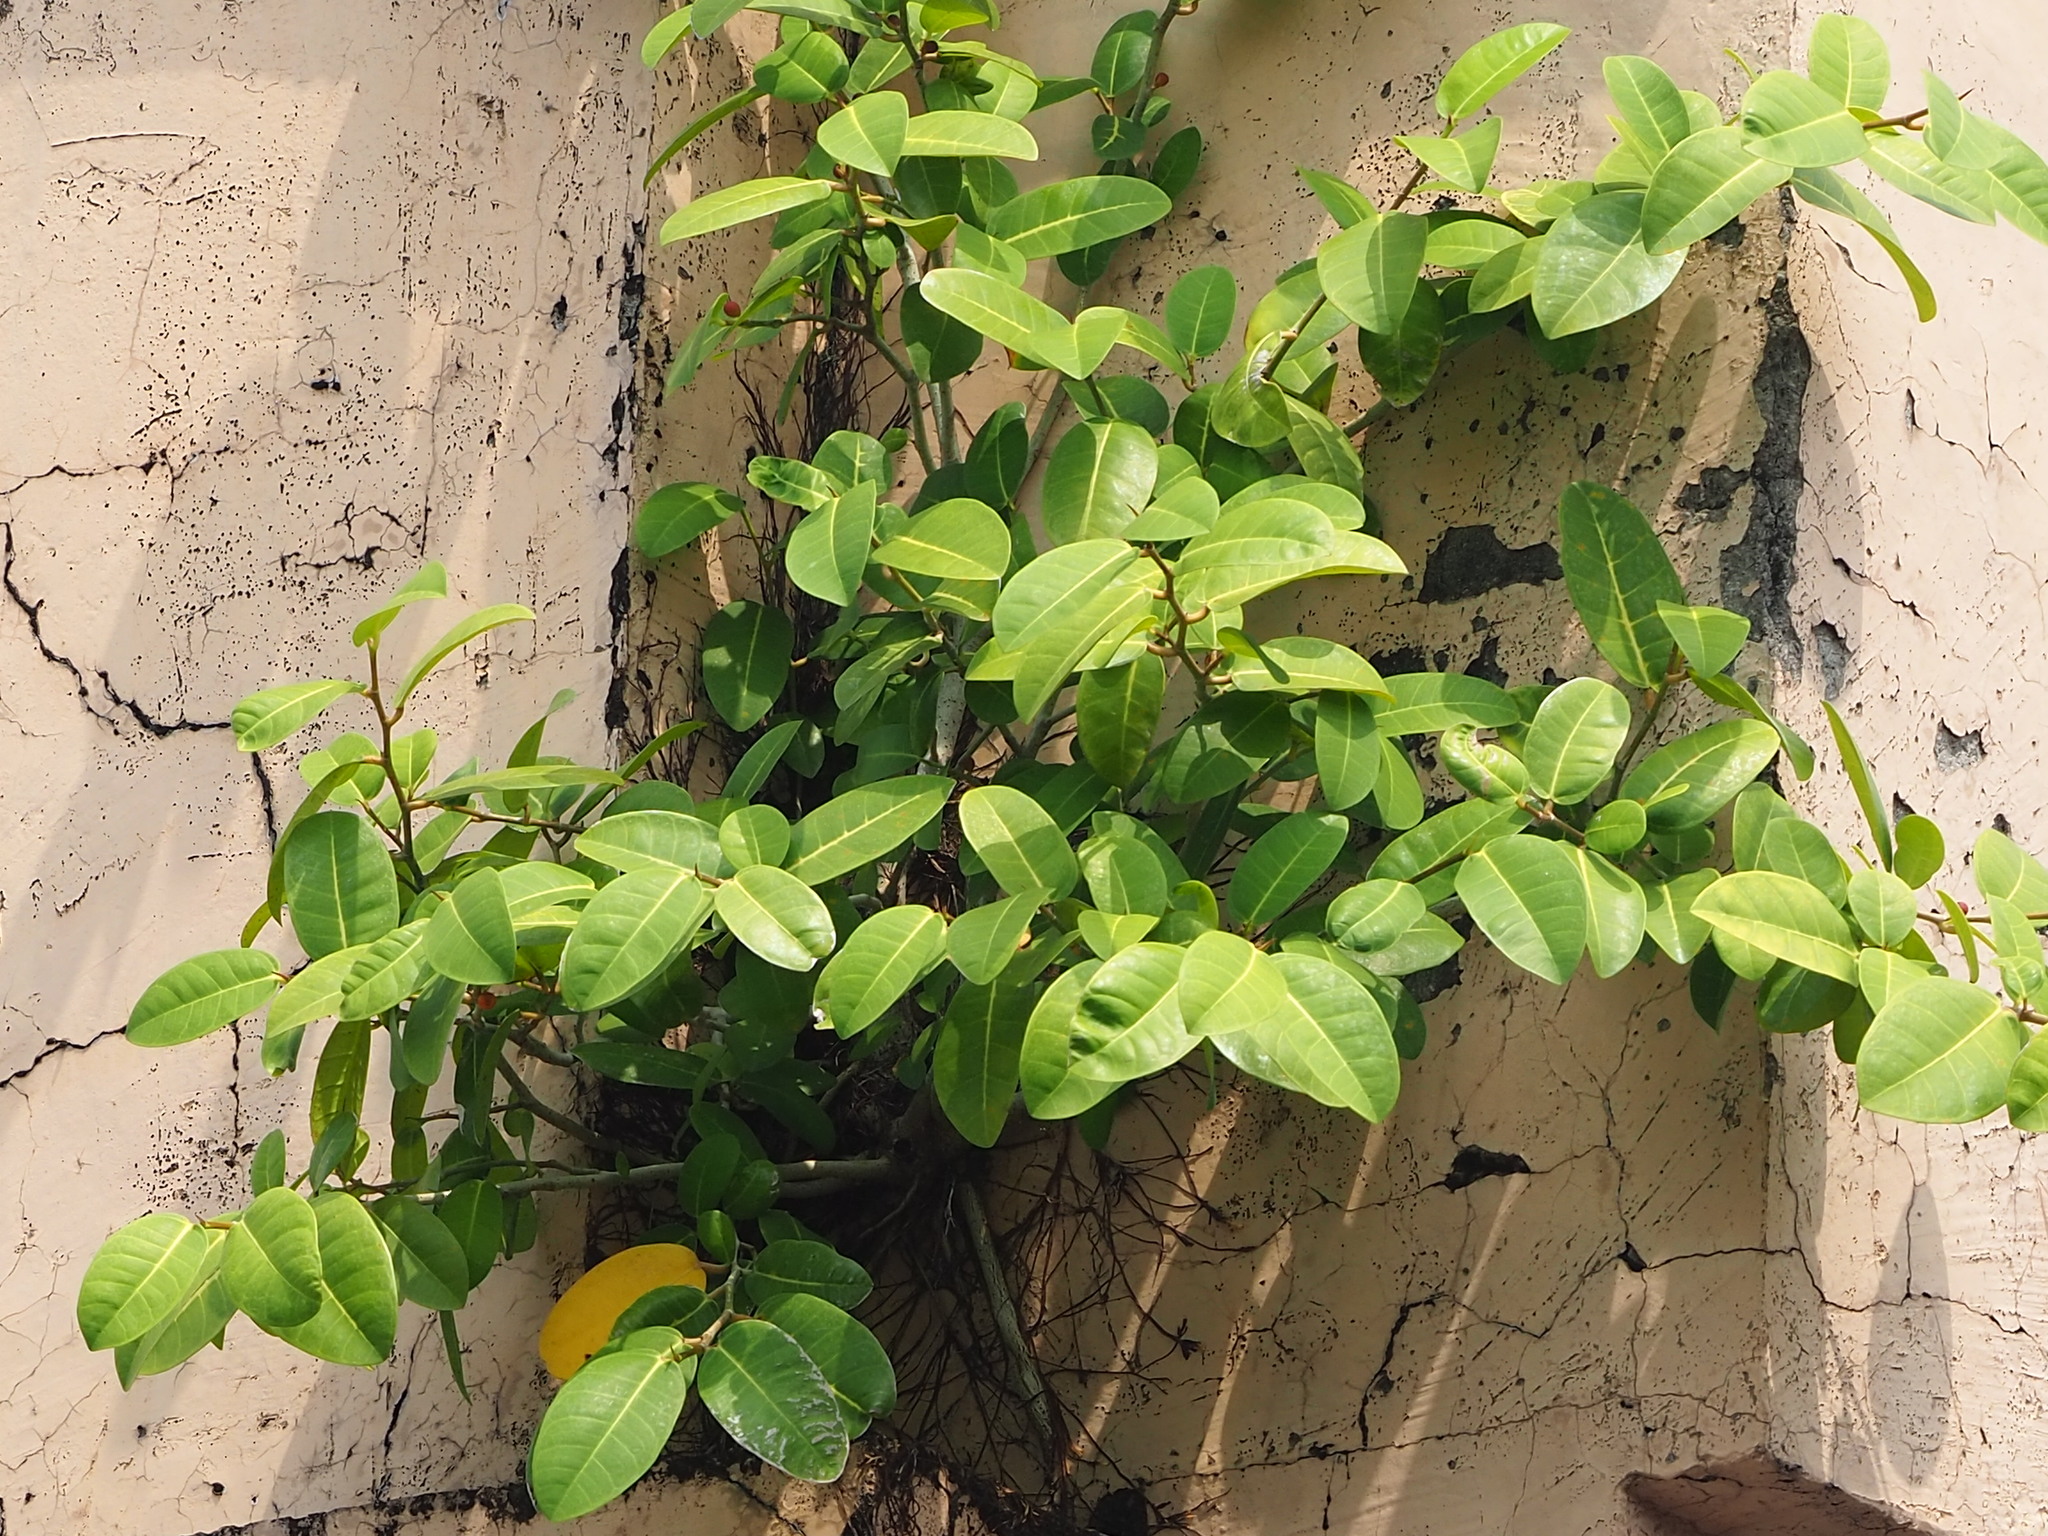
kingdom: Plantae
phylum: Tracheophyta
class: Magnoliopsida
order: Rosales
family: Moraceae
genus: Ficus
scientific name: Ficus tinctoria
